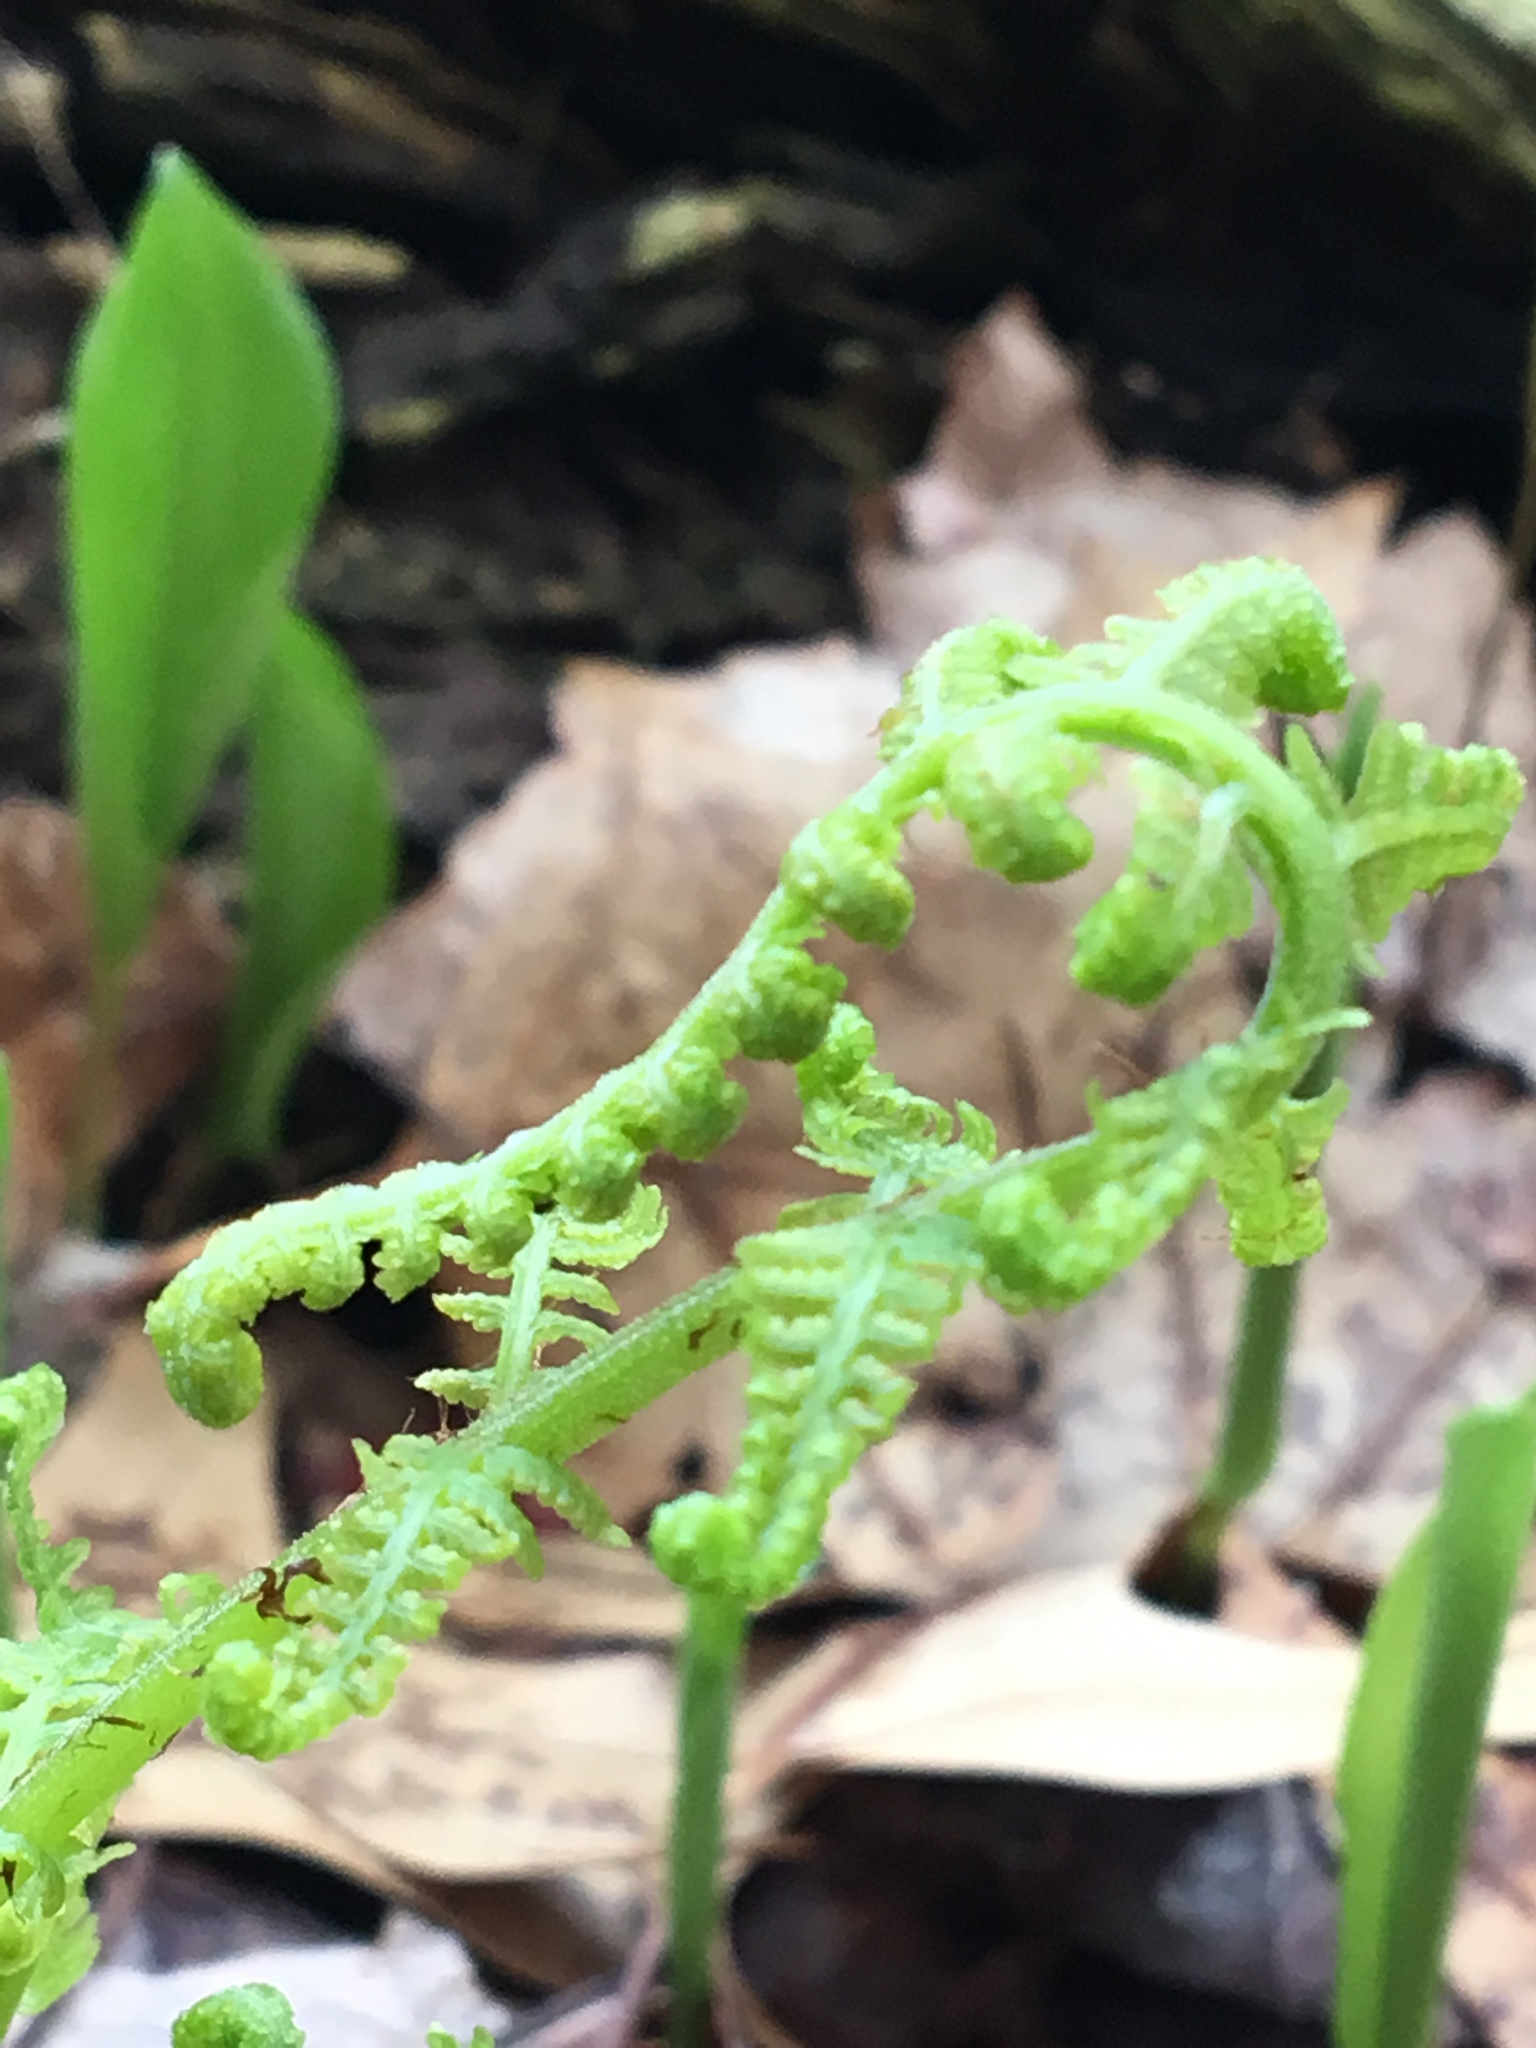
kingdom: Plantae
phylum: Tracheophyta
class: Polypodiopsida
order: Polypodiales
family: Athyriaceae
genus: Athyrium
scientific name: Athyrium angustum
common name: Northern lady fern
